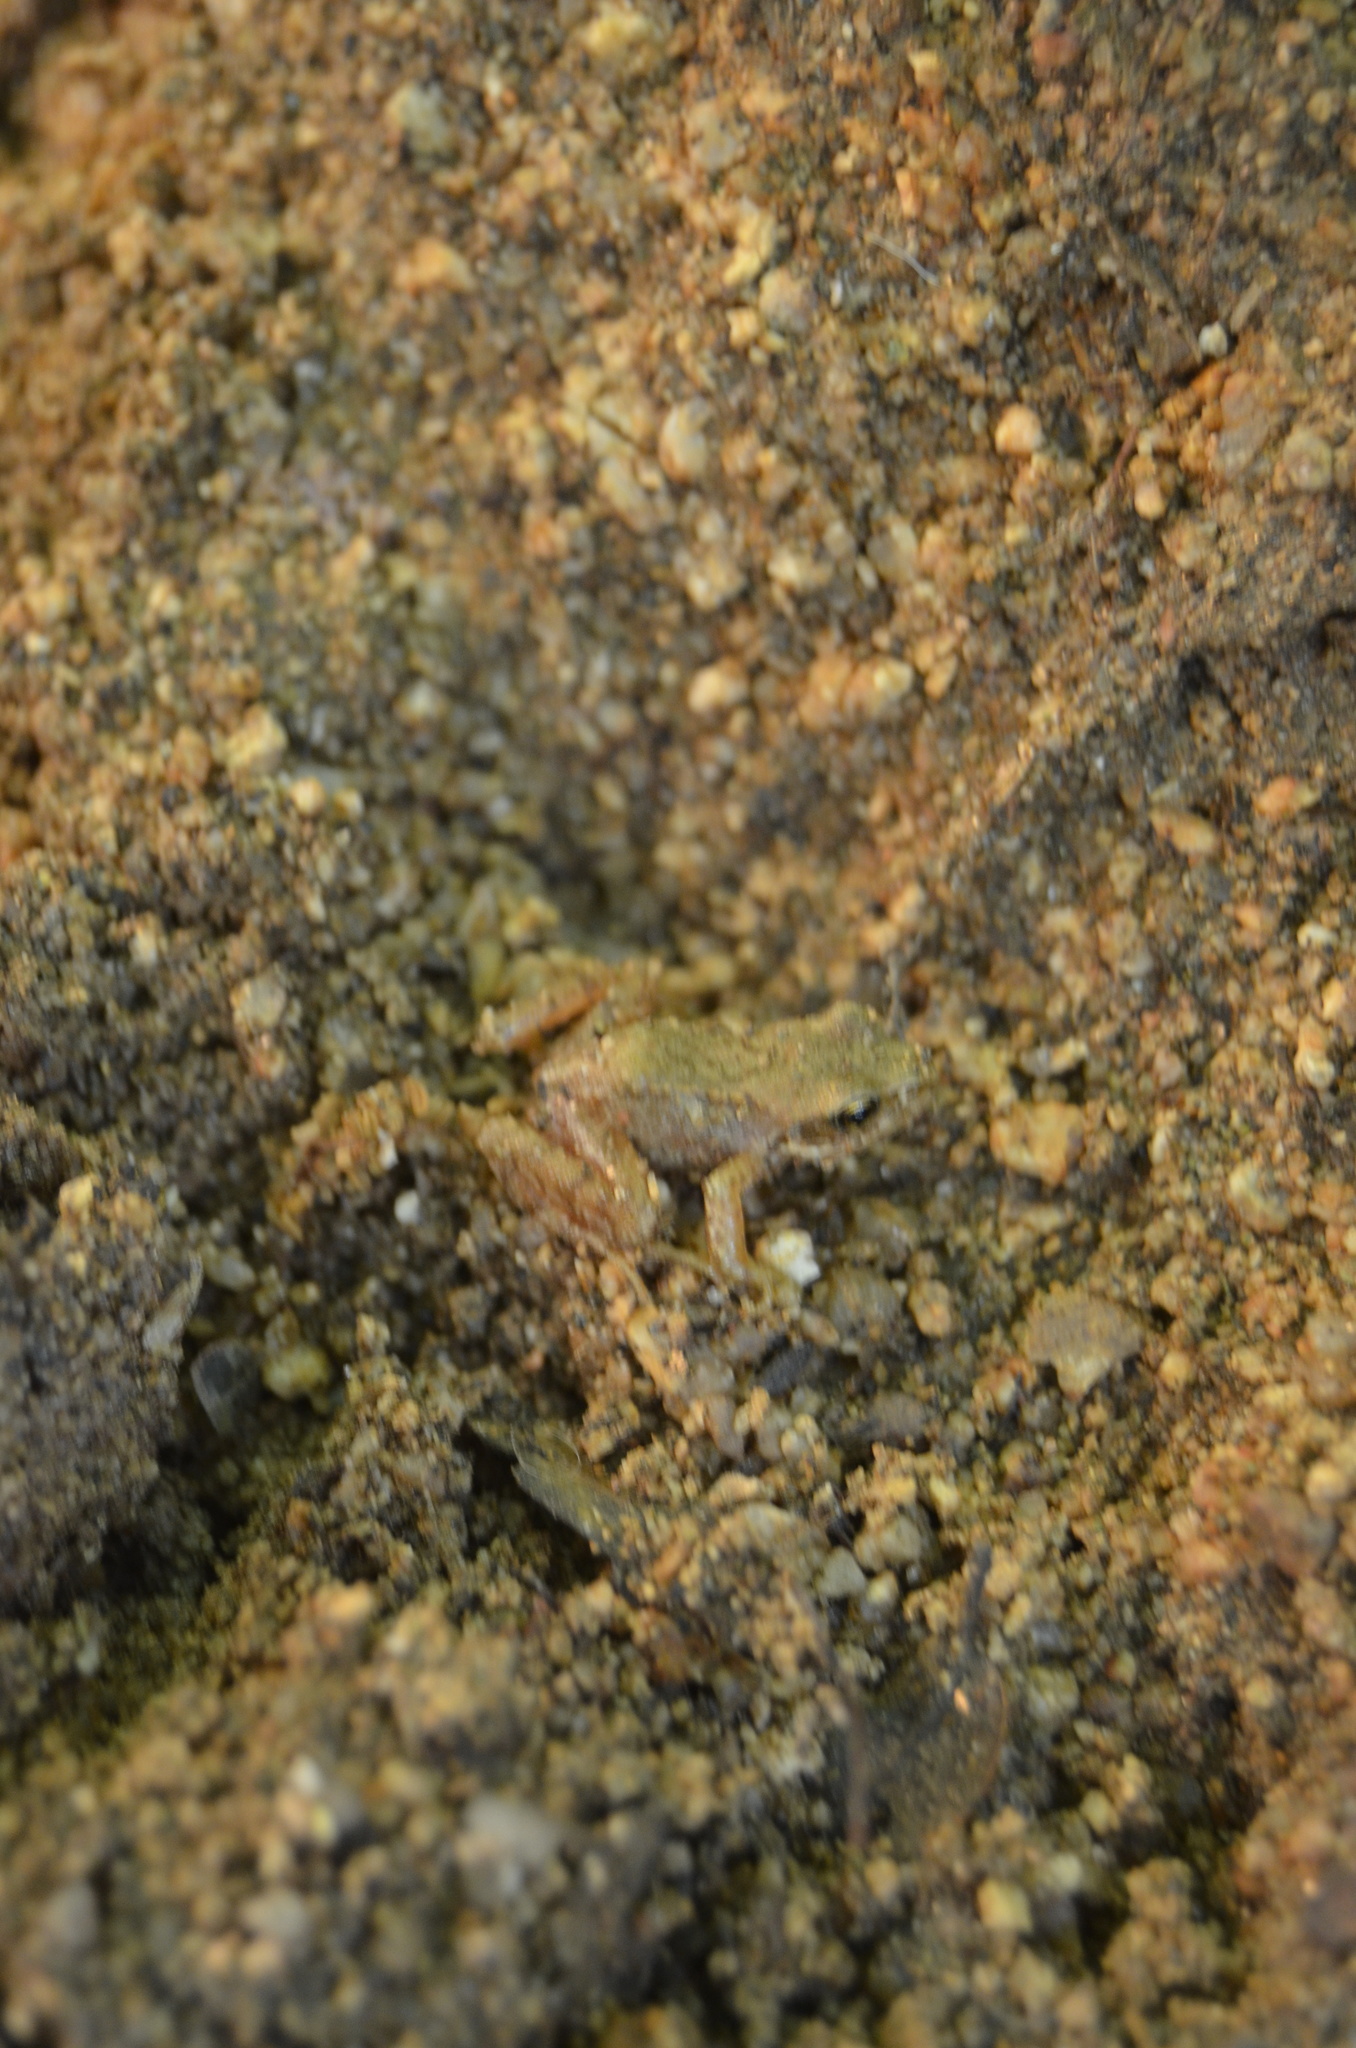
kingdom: Animalia
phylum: Chordata
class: Amphibia
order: Anura
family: Ranidae
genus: Rana
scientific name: Rana temporaria
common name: Common frog
